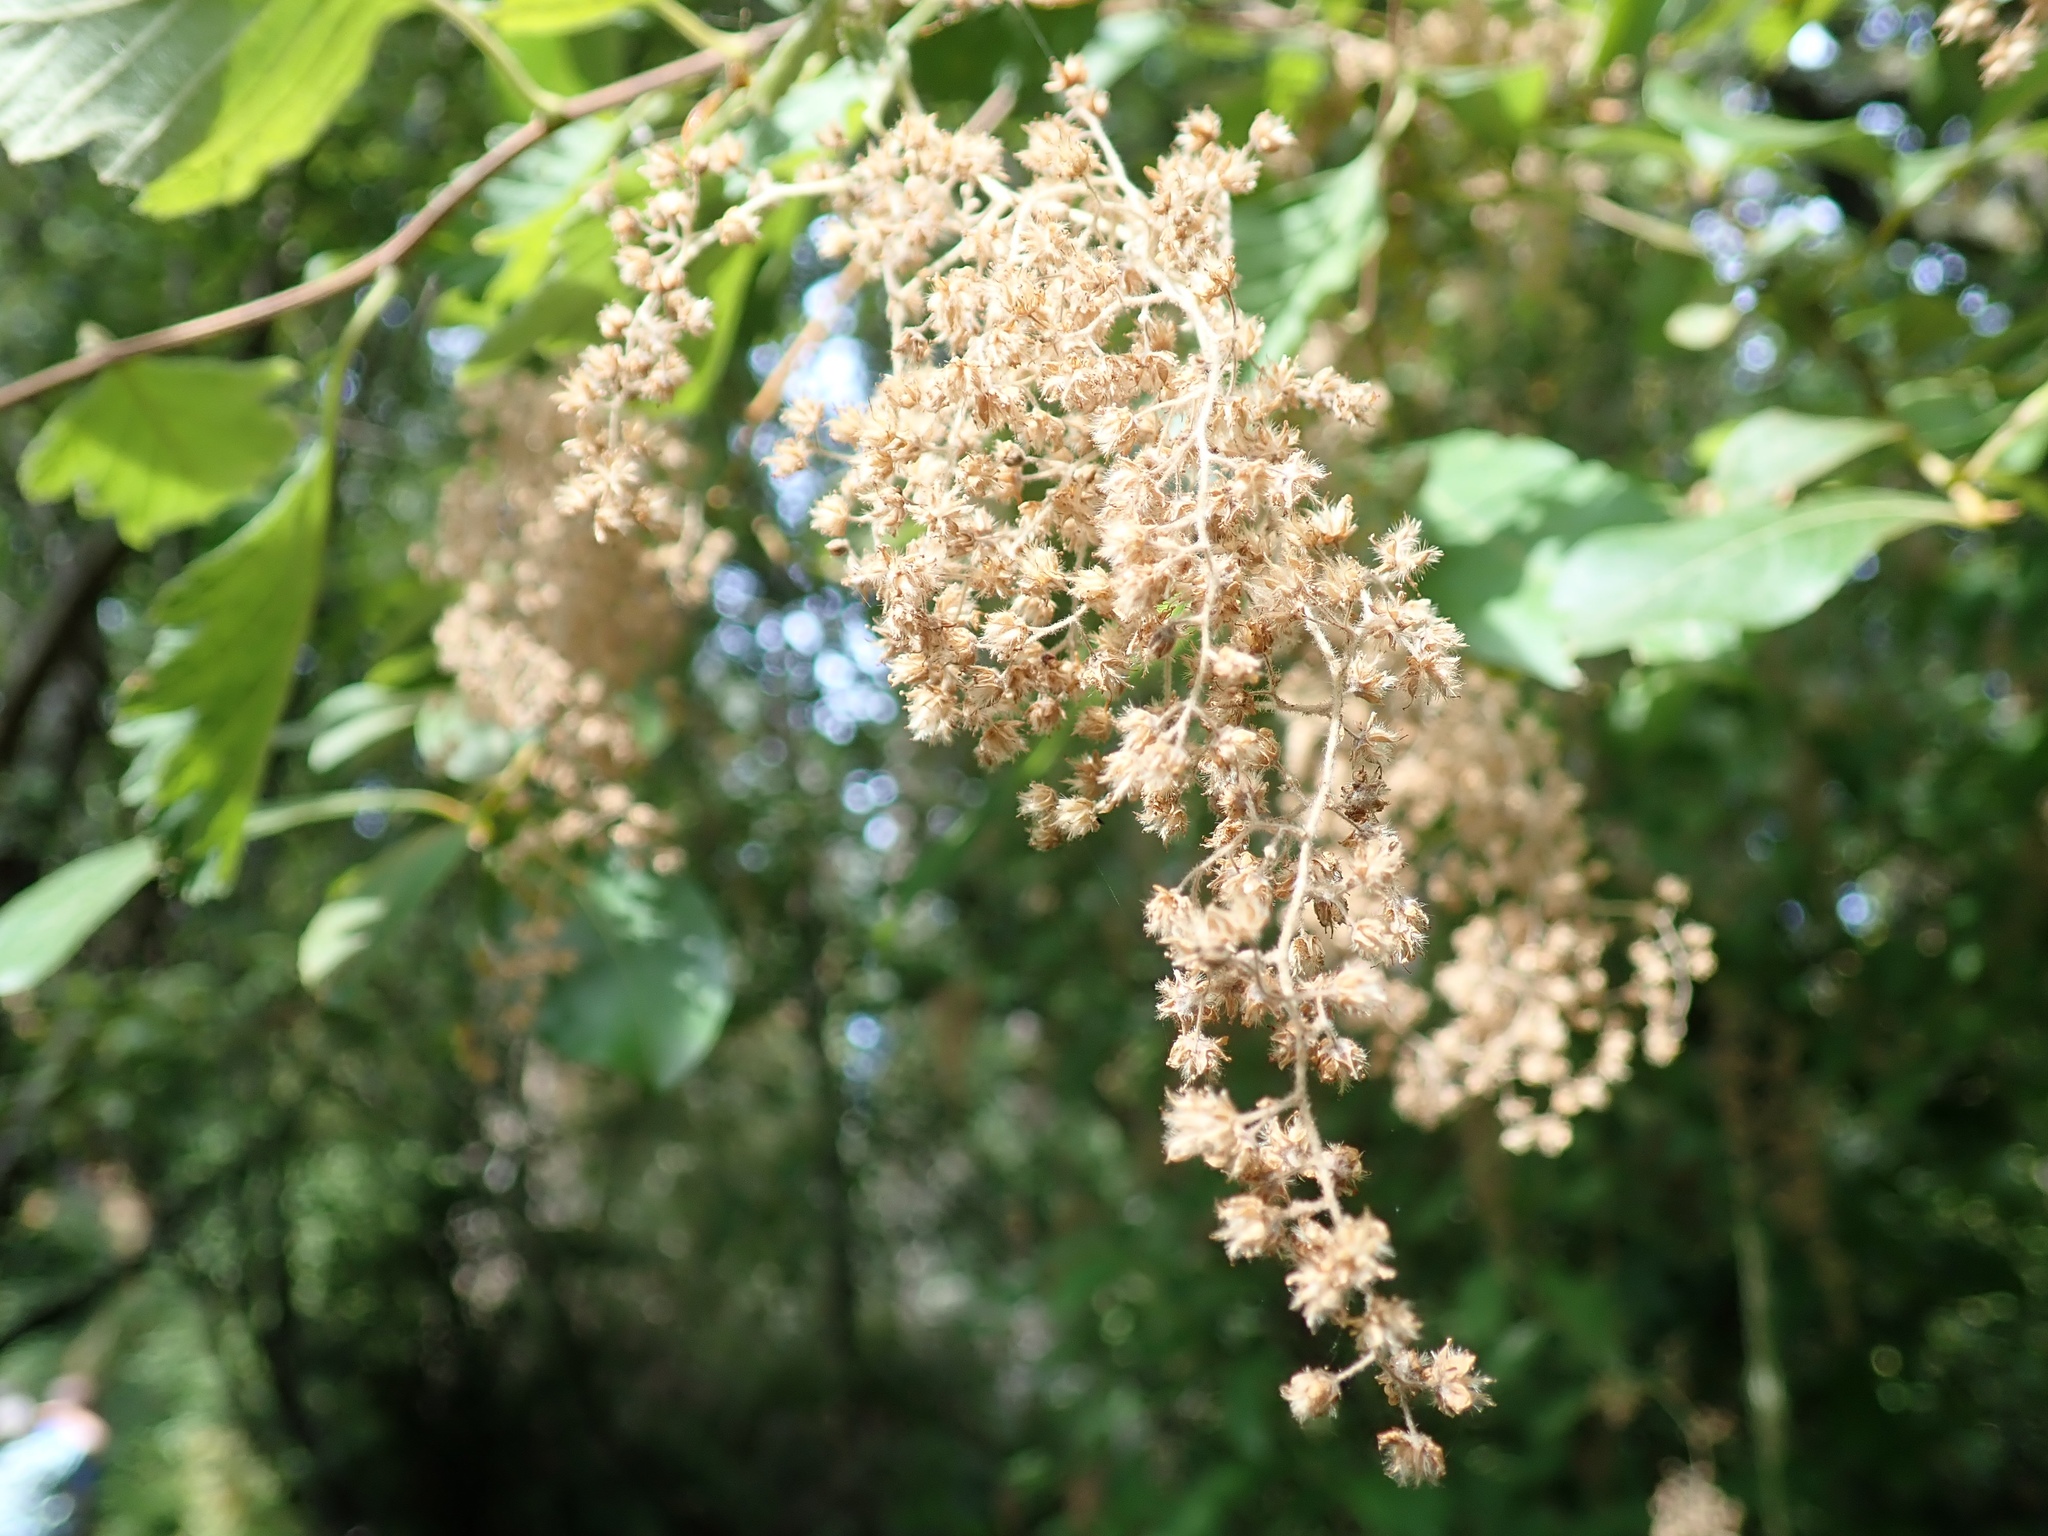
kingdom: Plantae
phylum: Tracheophyta
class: Magnoliopsida
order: Rosales
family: Rosaceae
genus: Holodiscus
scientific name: Holodiscus discolor
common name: Oceanspray
